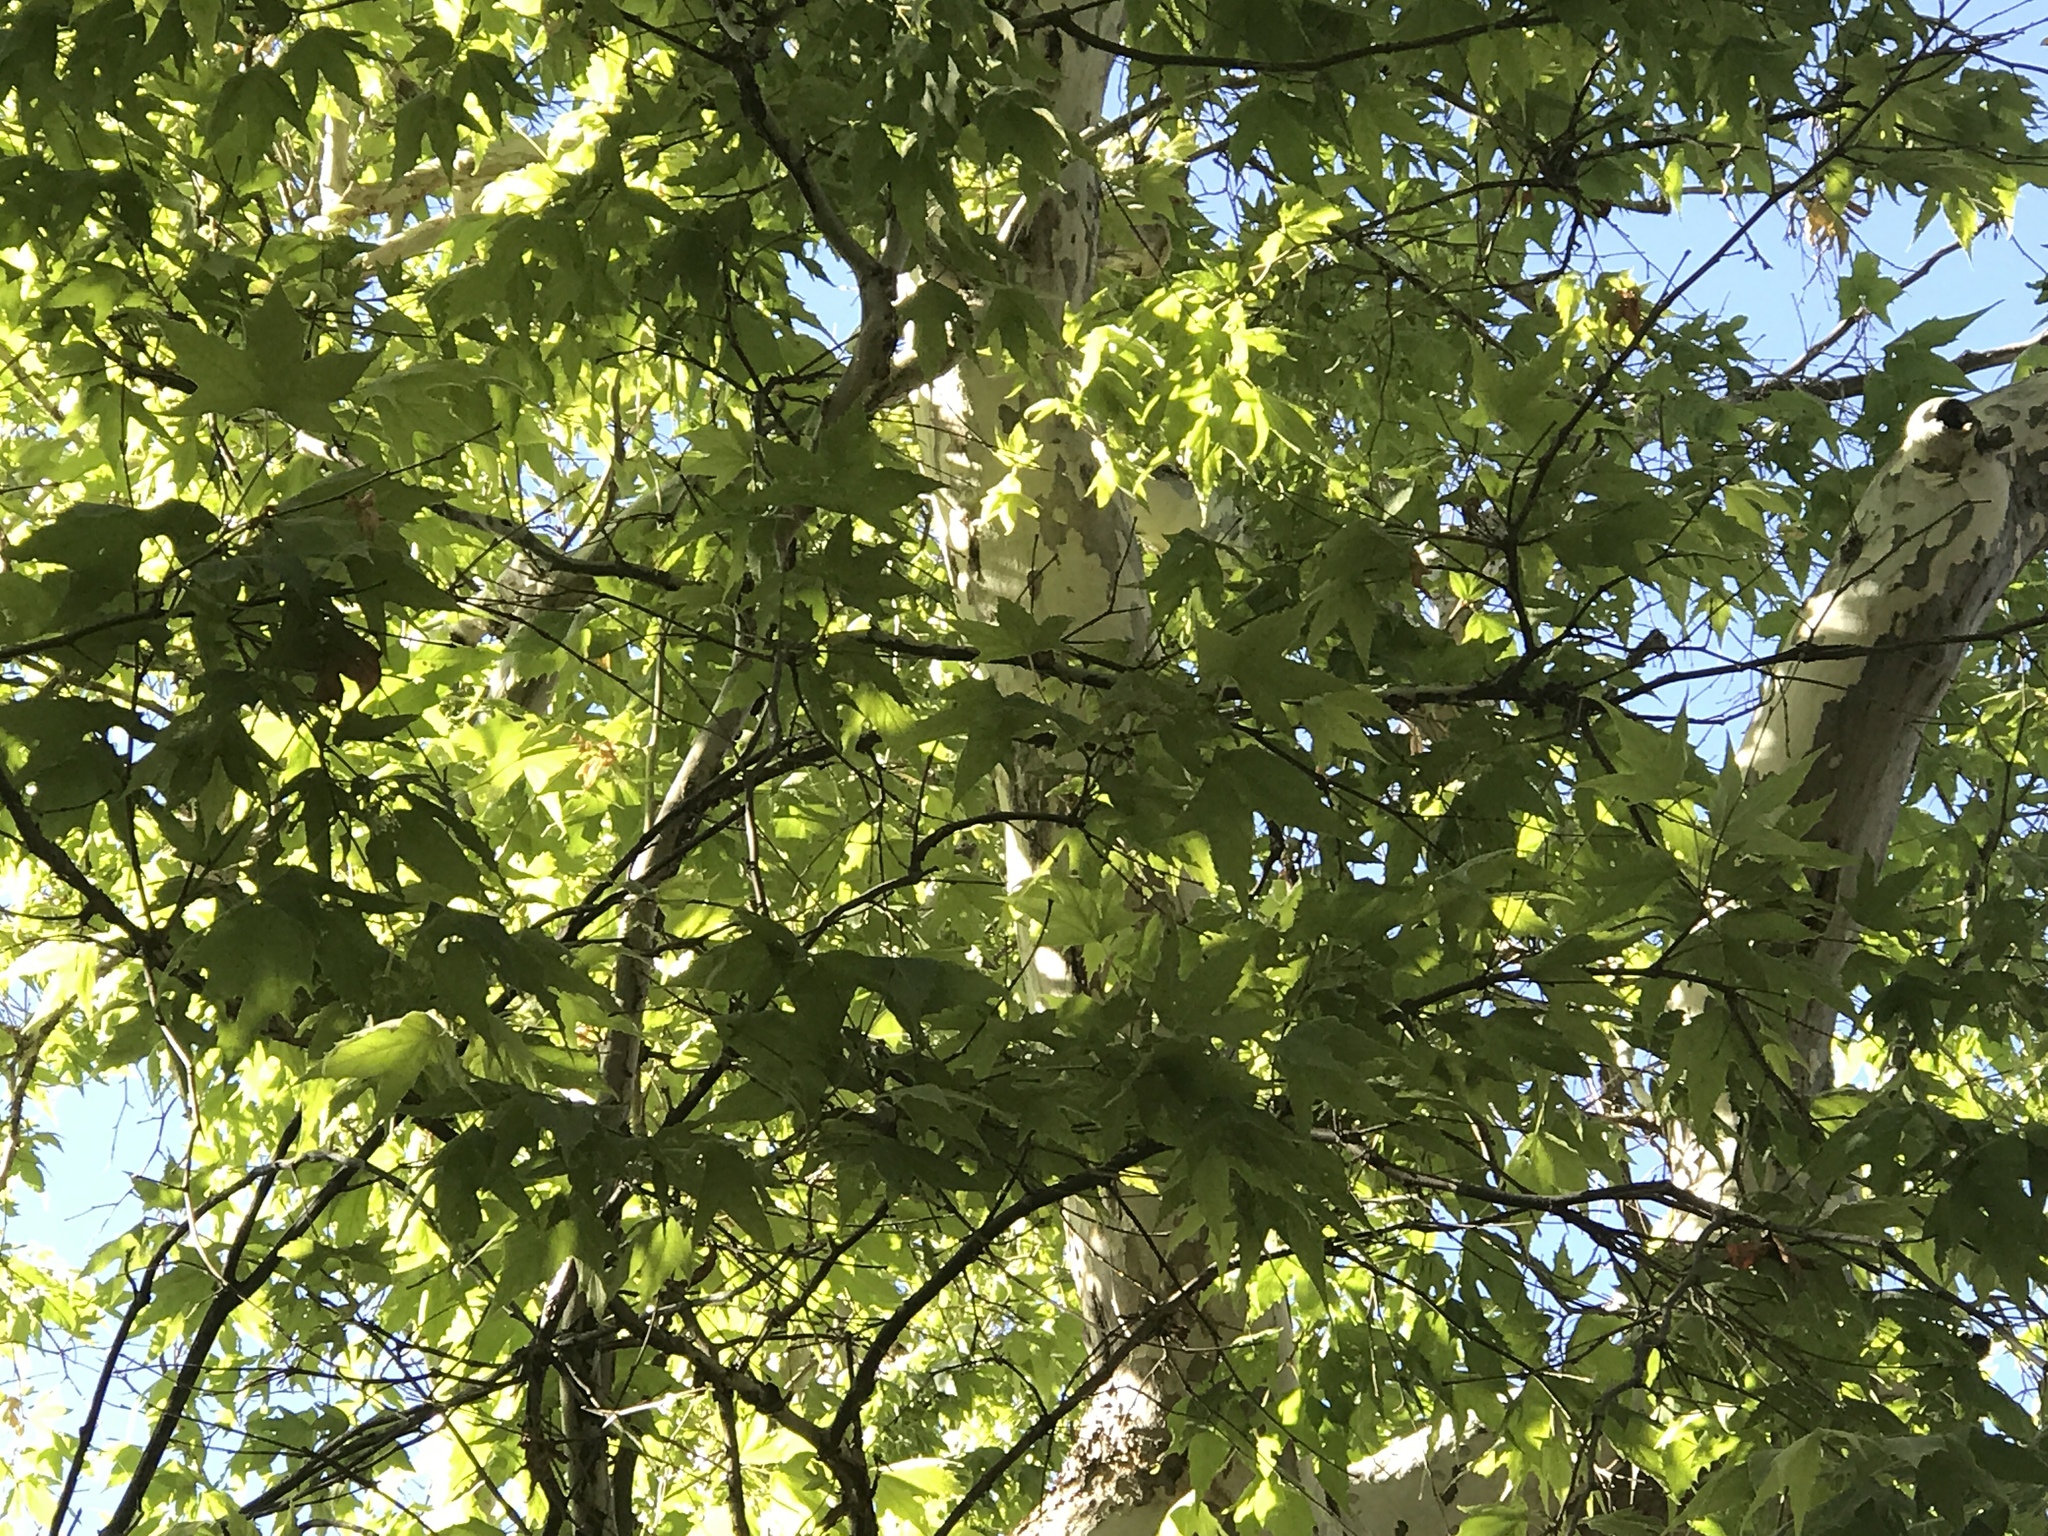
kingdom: Plantae
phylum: Tracheophyta
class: Magnoliopsida
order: Proteales
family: Platanaceae
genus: Platanus
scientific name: Platanus wrightii
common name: Arizona sycamore
